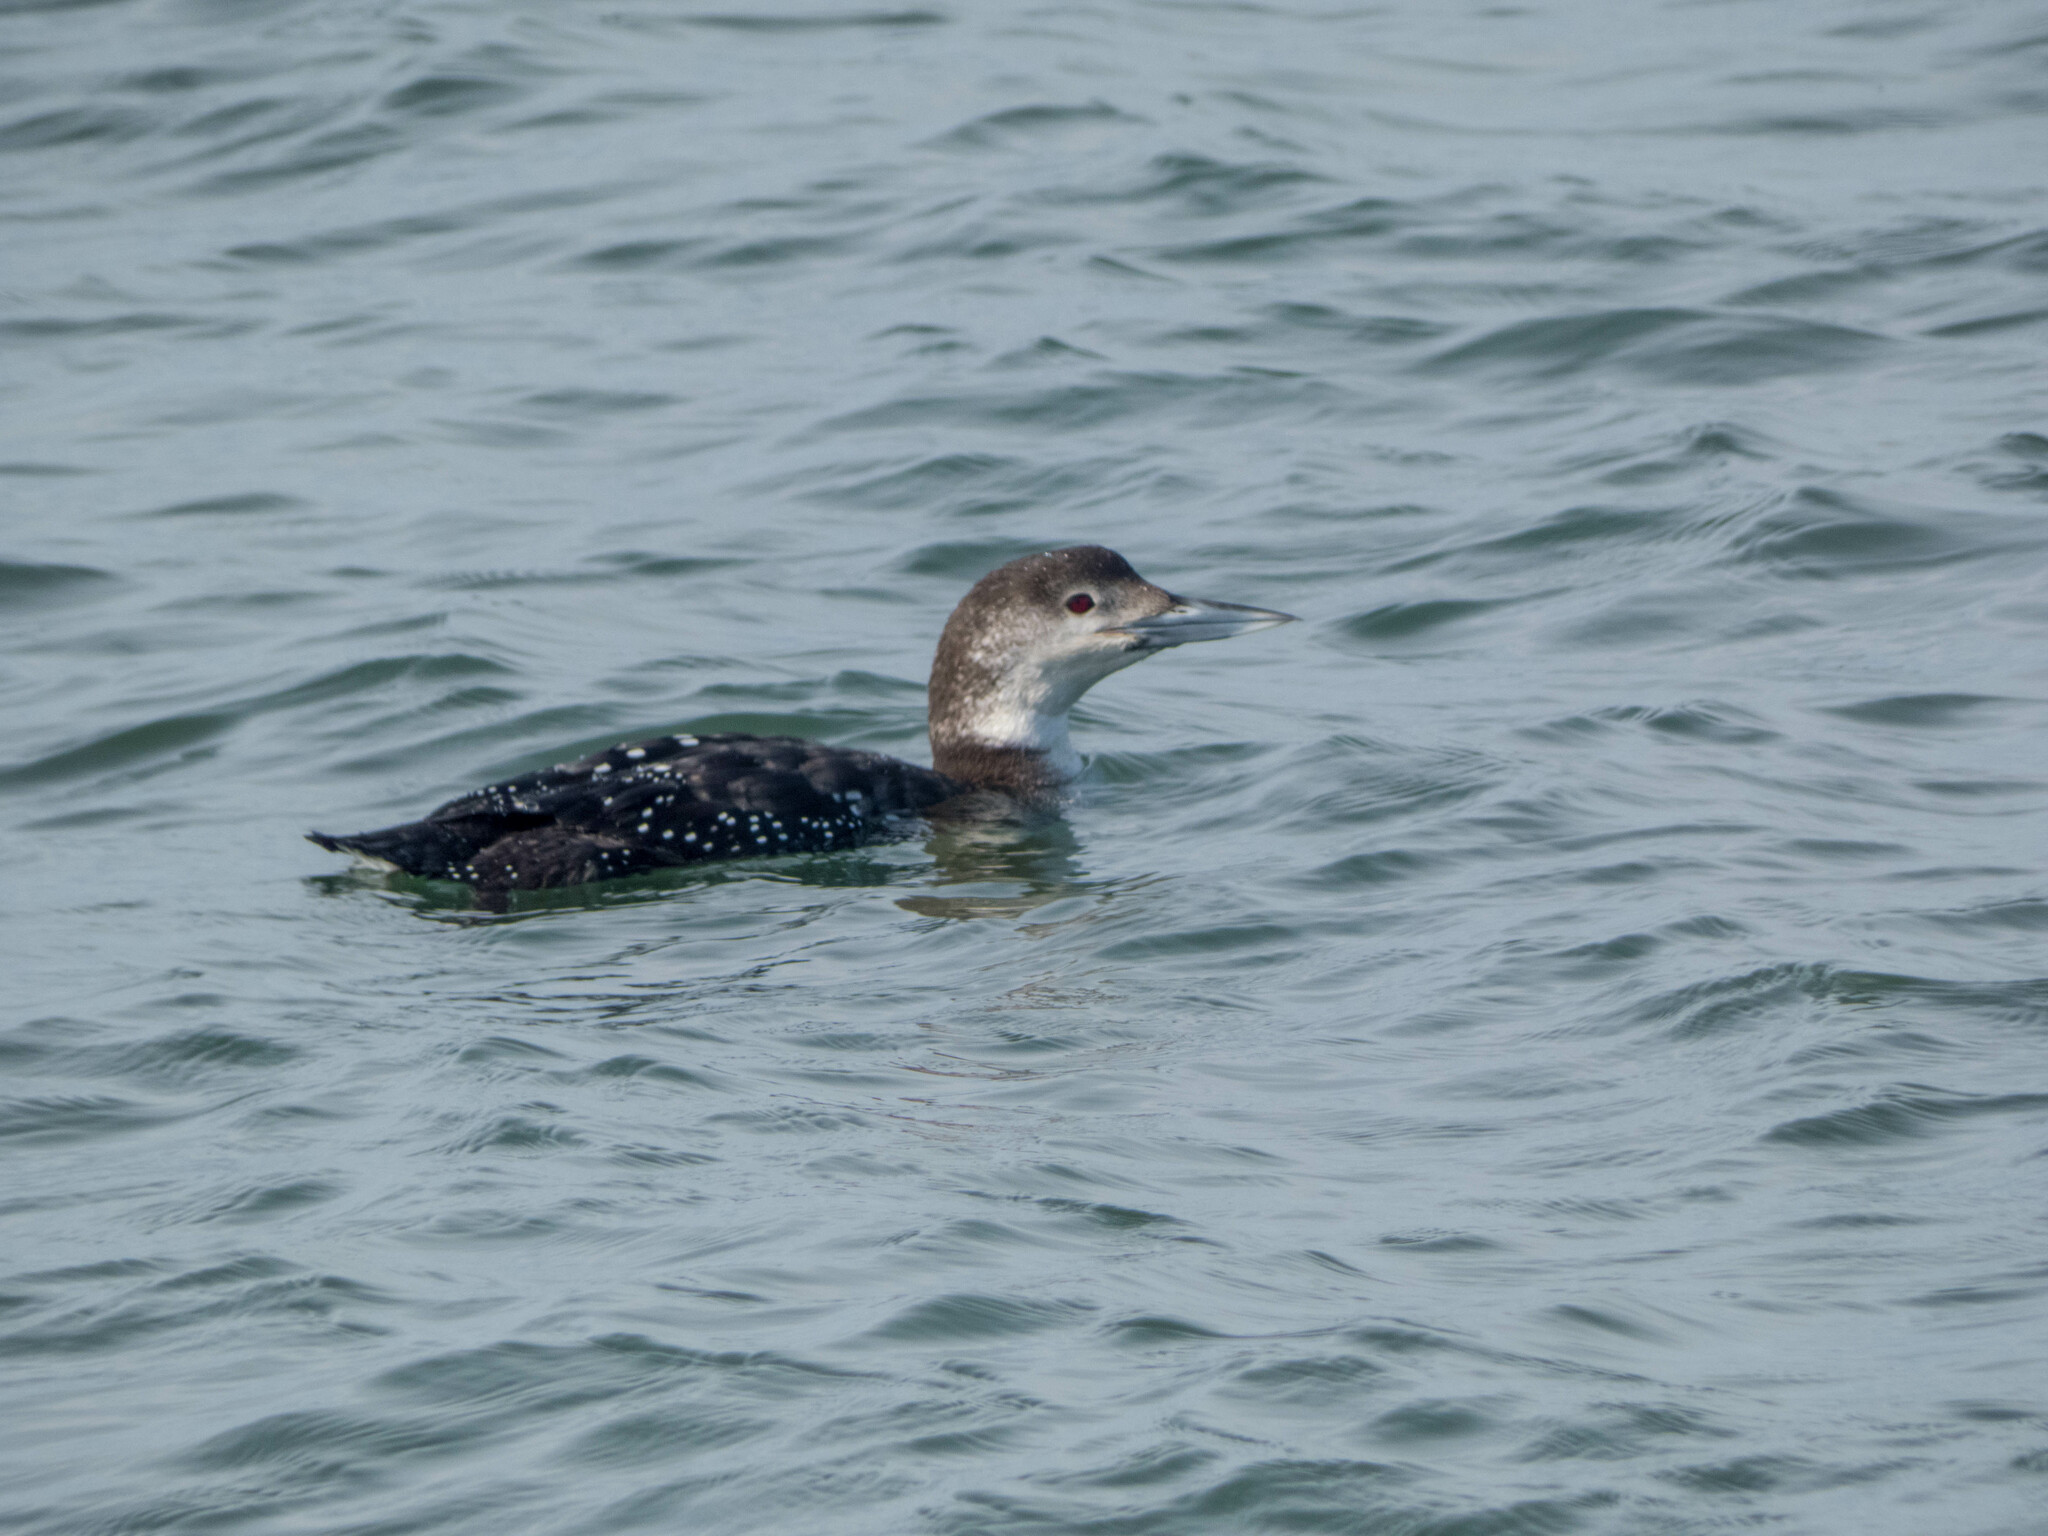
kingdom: Animalia
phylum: Chordata
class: Aves
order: Gaviiformes
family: Gaviidae
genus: Gavia
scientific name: Gavia immer
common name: Common loon
